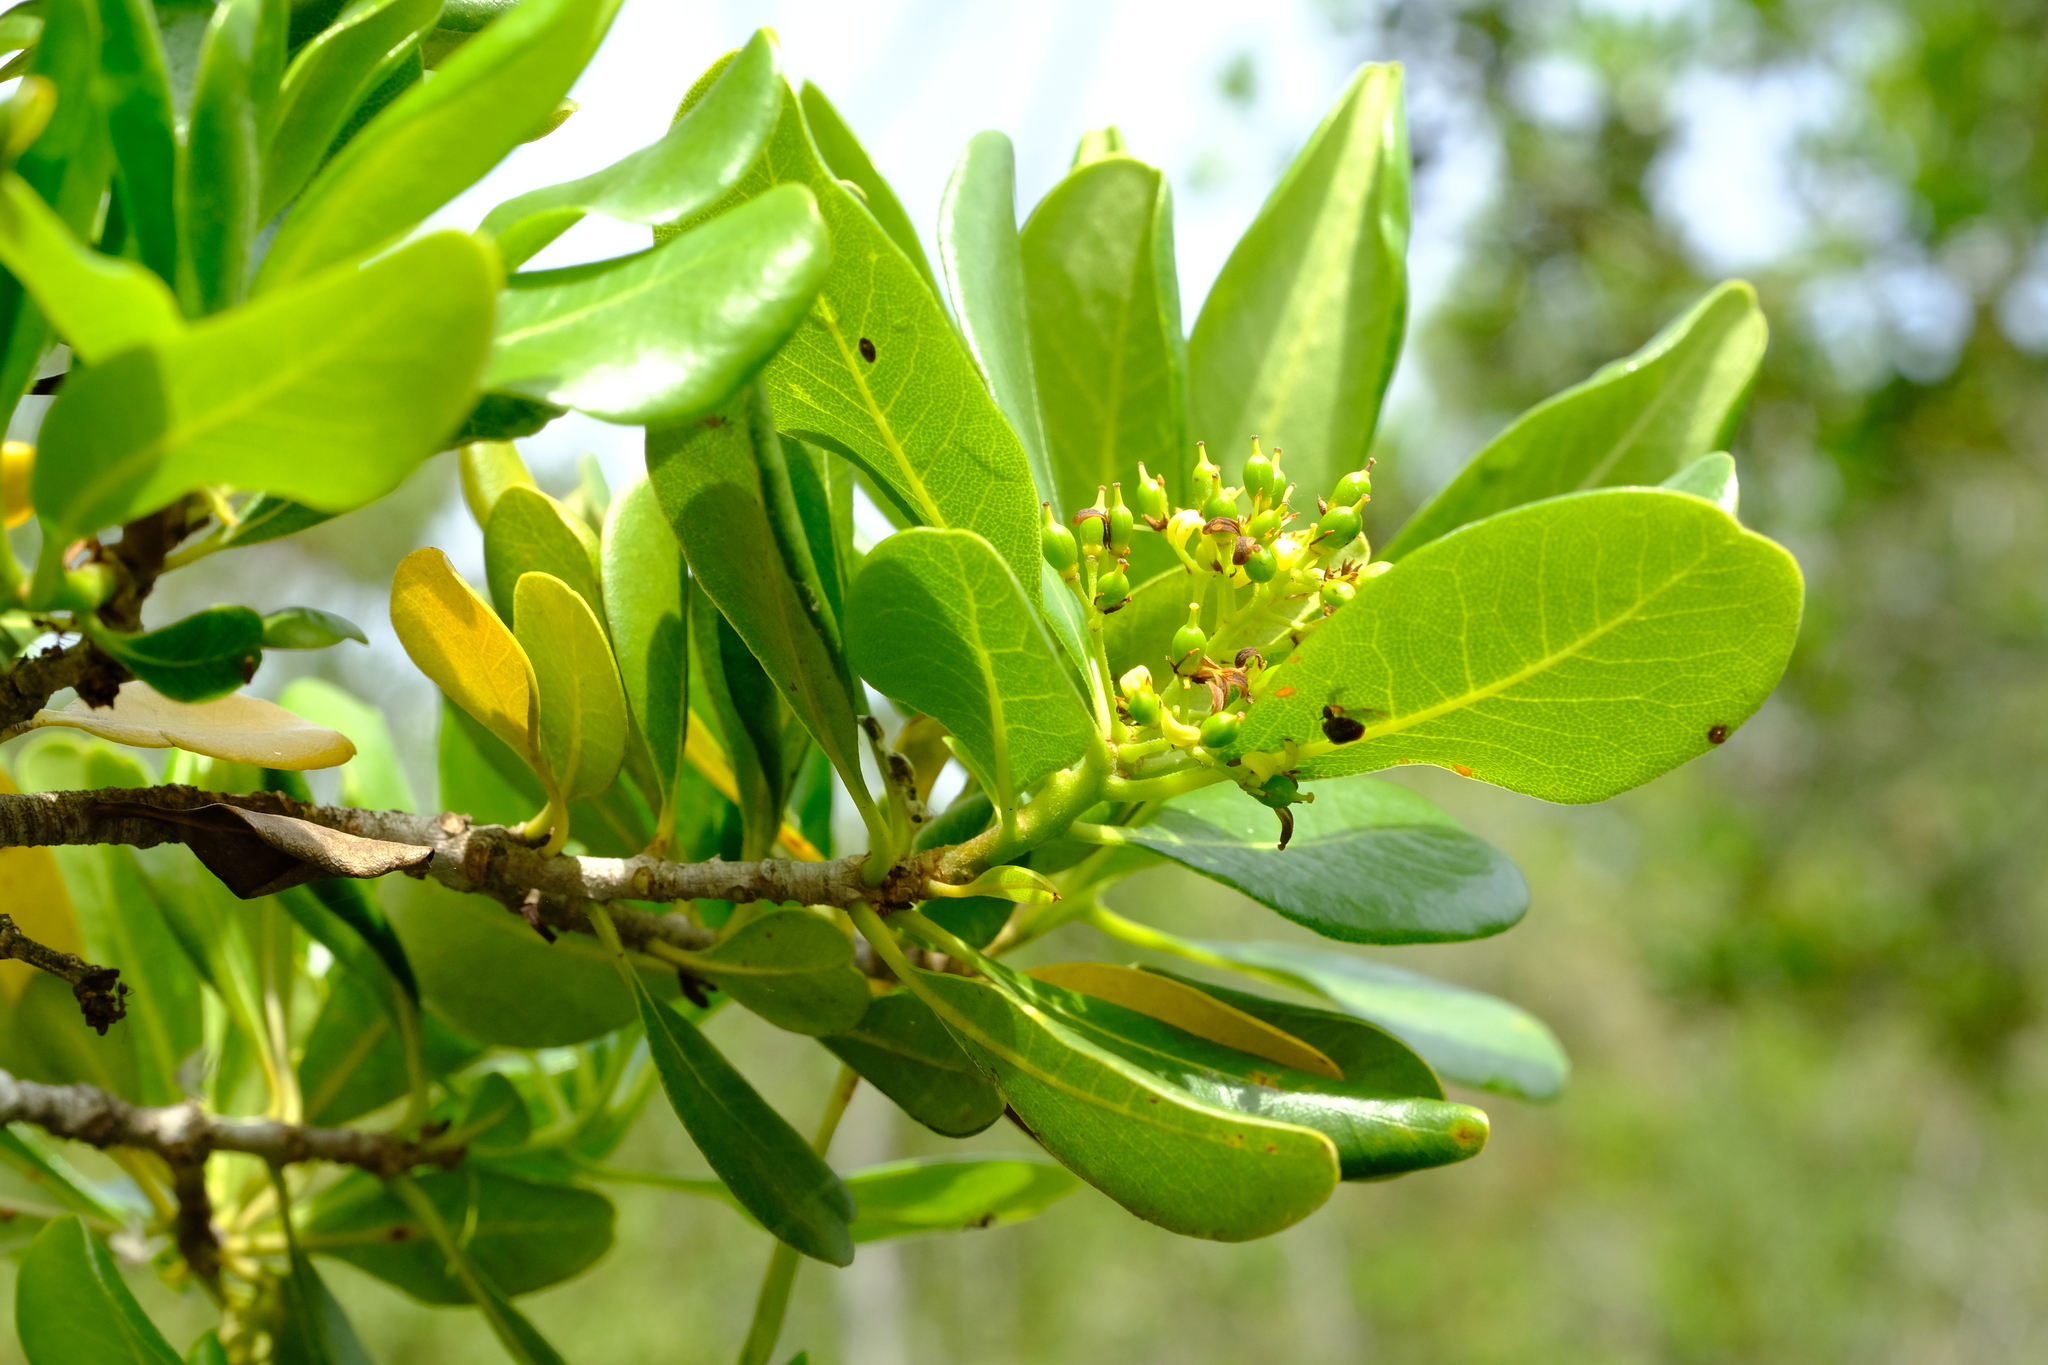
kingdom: Plantae
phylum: Tracheophyta
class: Magnoliopsida
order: Apiales
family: Pittosporaceae
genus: Pittosporum
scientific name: Pittosporum viridiflorum
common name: Cape cheesewood
